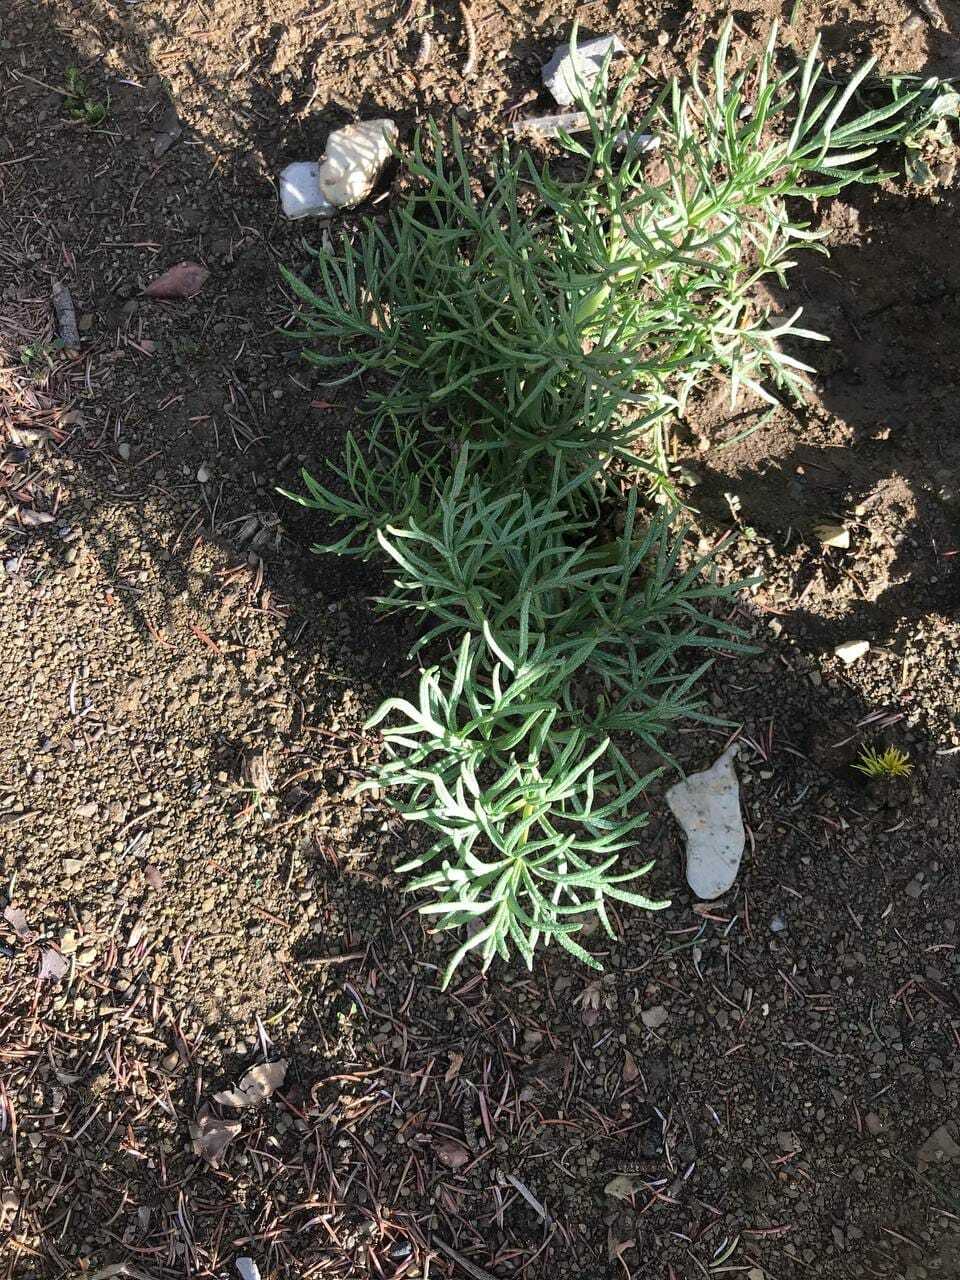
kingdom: Plantae
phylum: Tracheophyta
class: Magnoliopsida
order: Apiales
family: Apiaceae
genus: Thapsia
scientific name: Thapsia garganica
